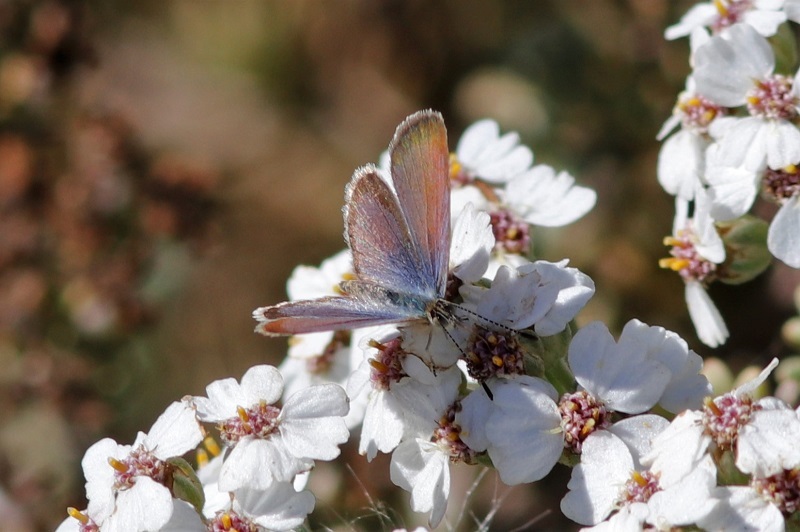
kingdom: Animalia
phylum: Arthropoda
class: Insecta
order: Lepidoptera
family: Lycaenidae
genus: Zizeeria
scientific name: Zizeeria knysna
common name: African grass blue
